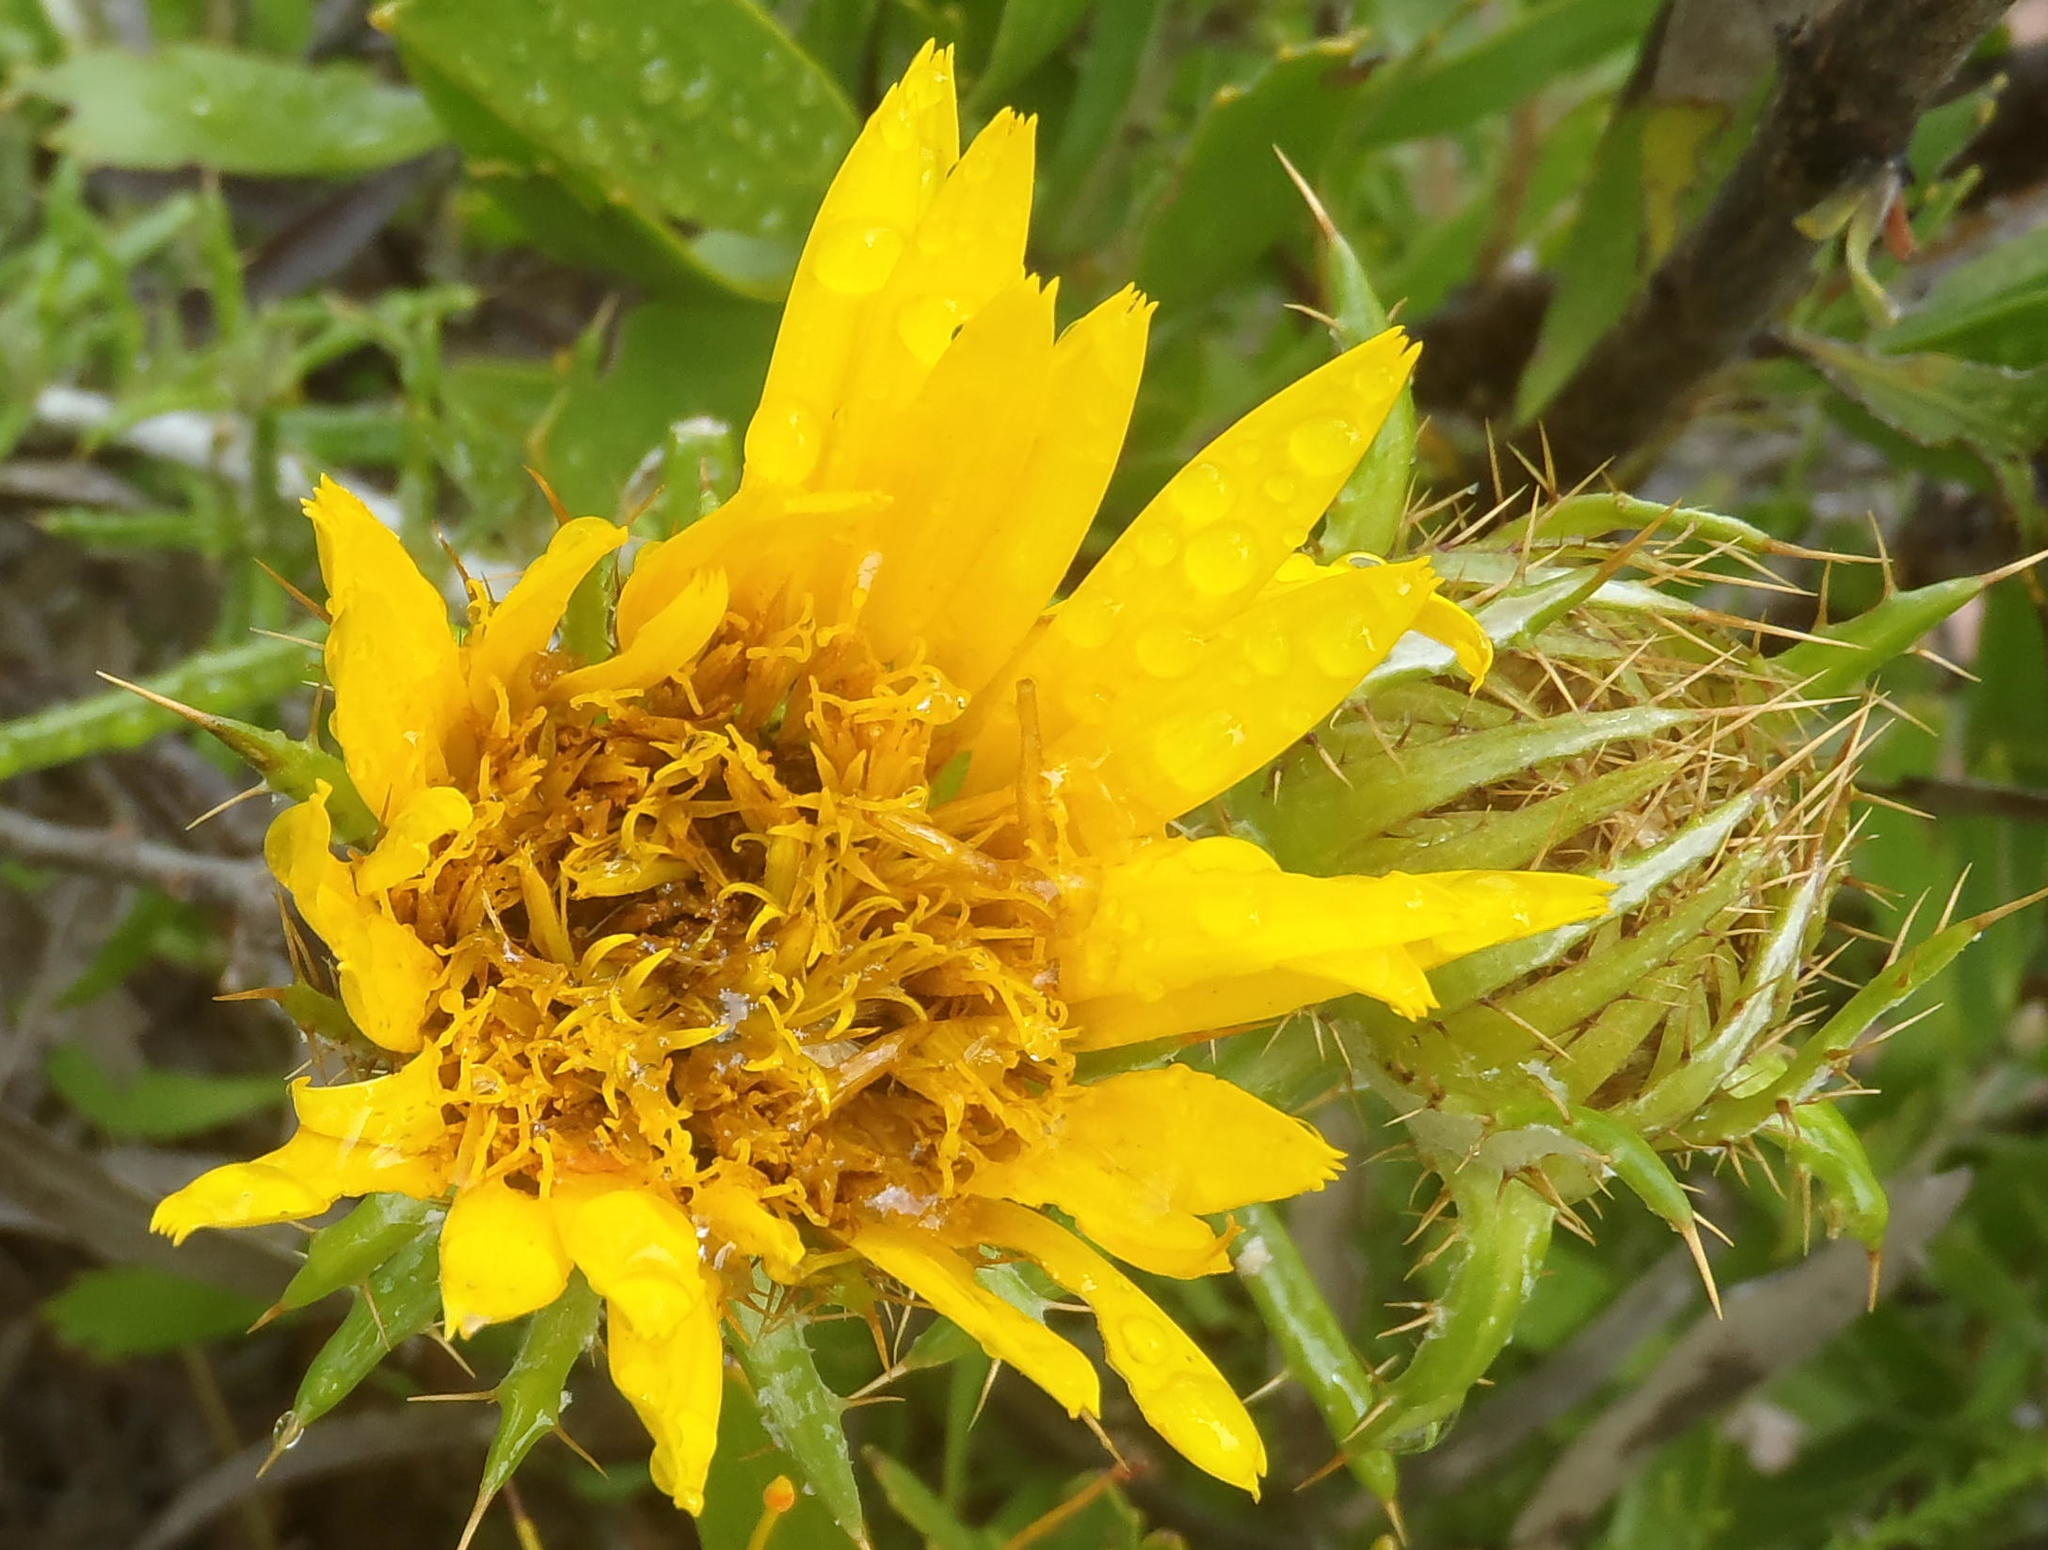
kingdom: Plantae
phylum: Tracheophyta
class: Magnoliopsida
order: Asterales
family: Asteraceae
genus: Berkheya
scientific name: Berkheya angustifolia
